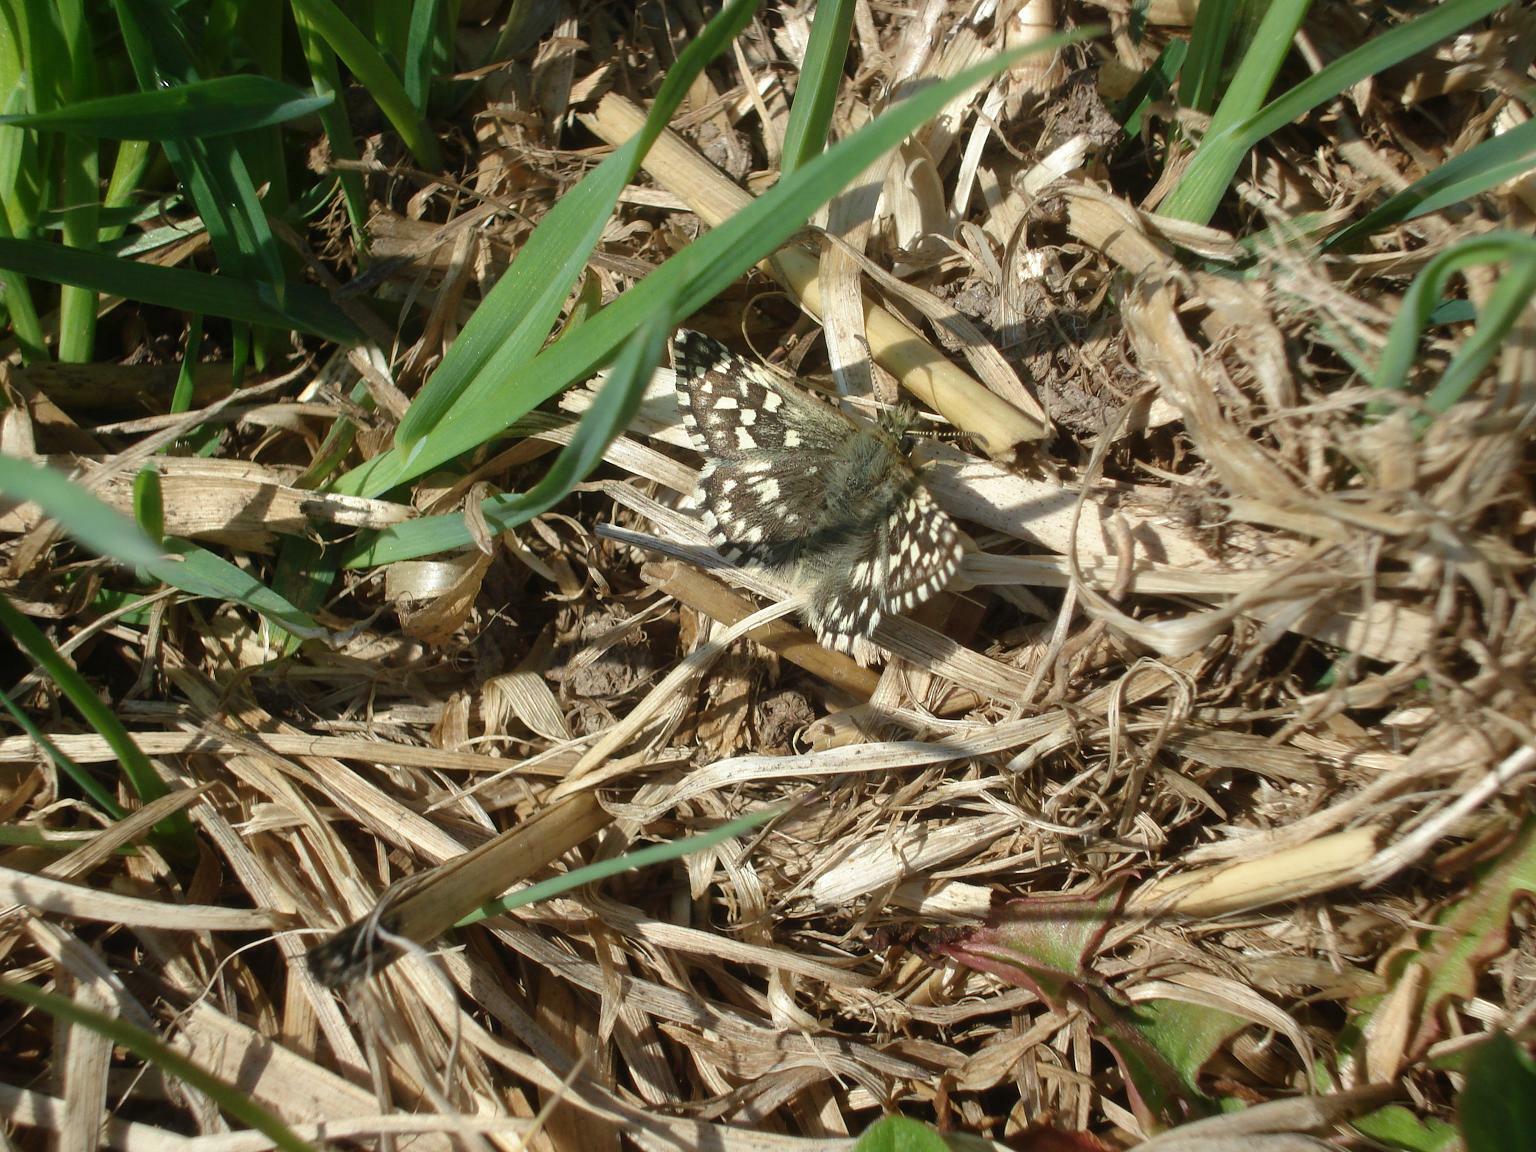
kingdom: Animalia
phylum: Arthropoda
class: Insecta
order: Lepidoptera
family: Hesperiidae
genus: Pyrgus
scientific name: Pyrgus malvae
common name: Grizzled skipper
